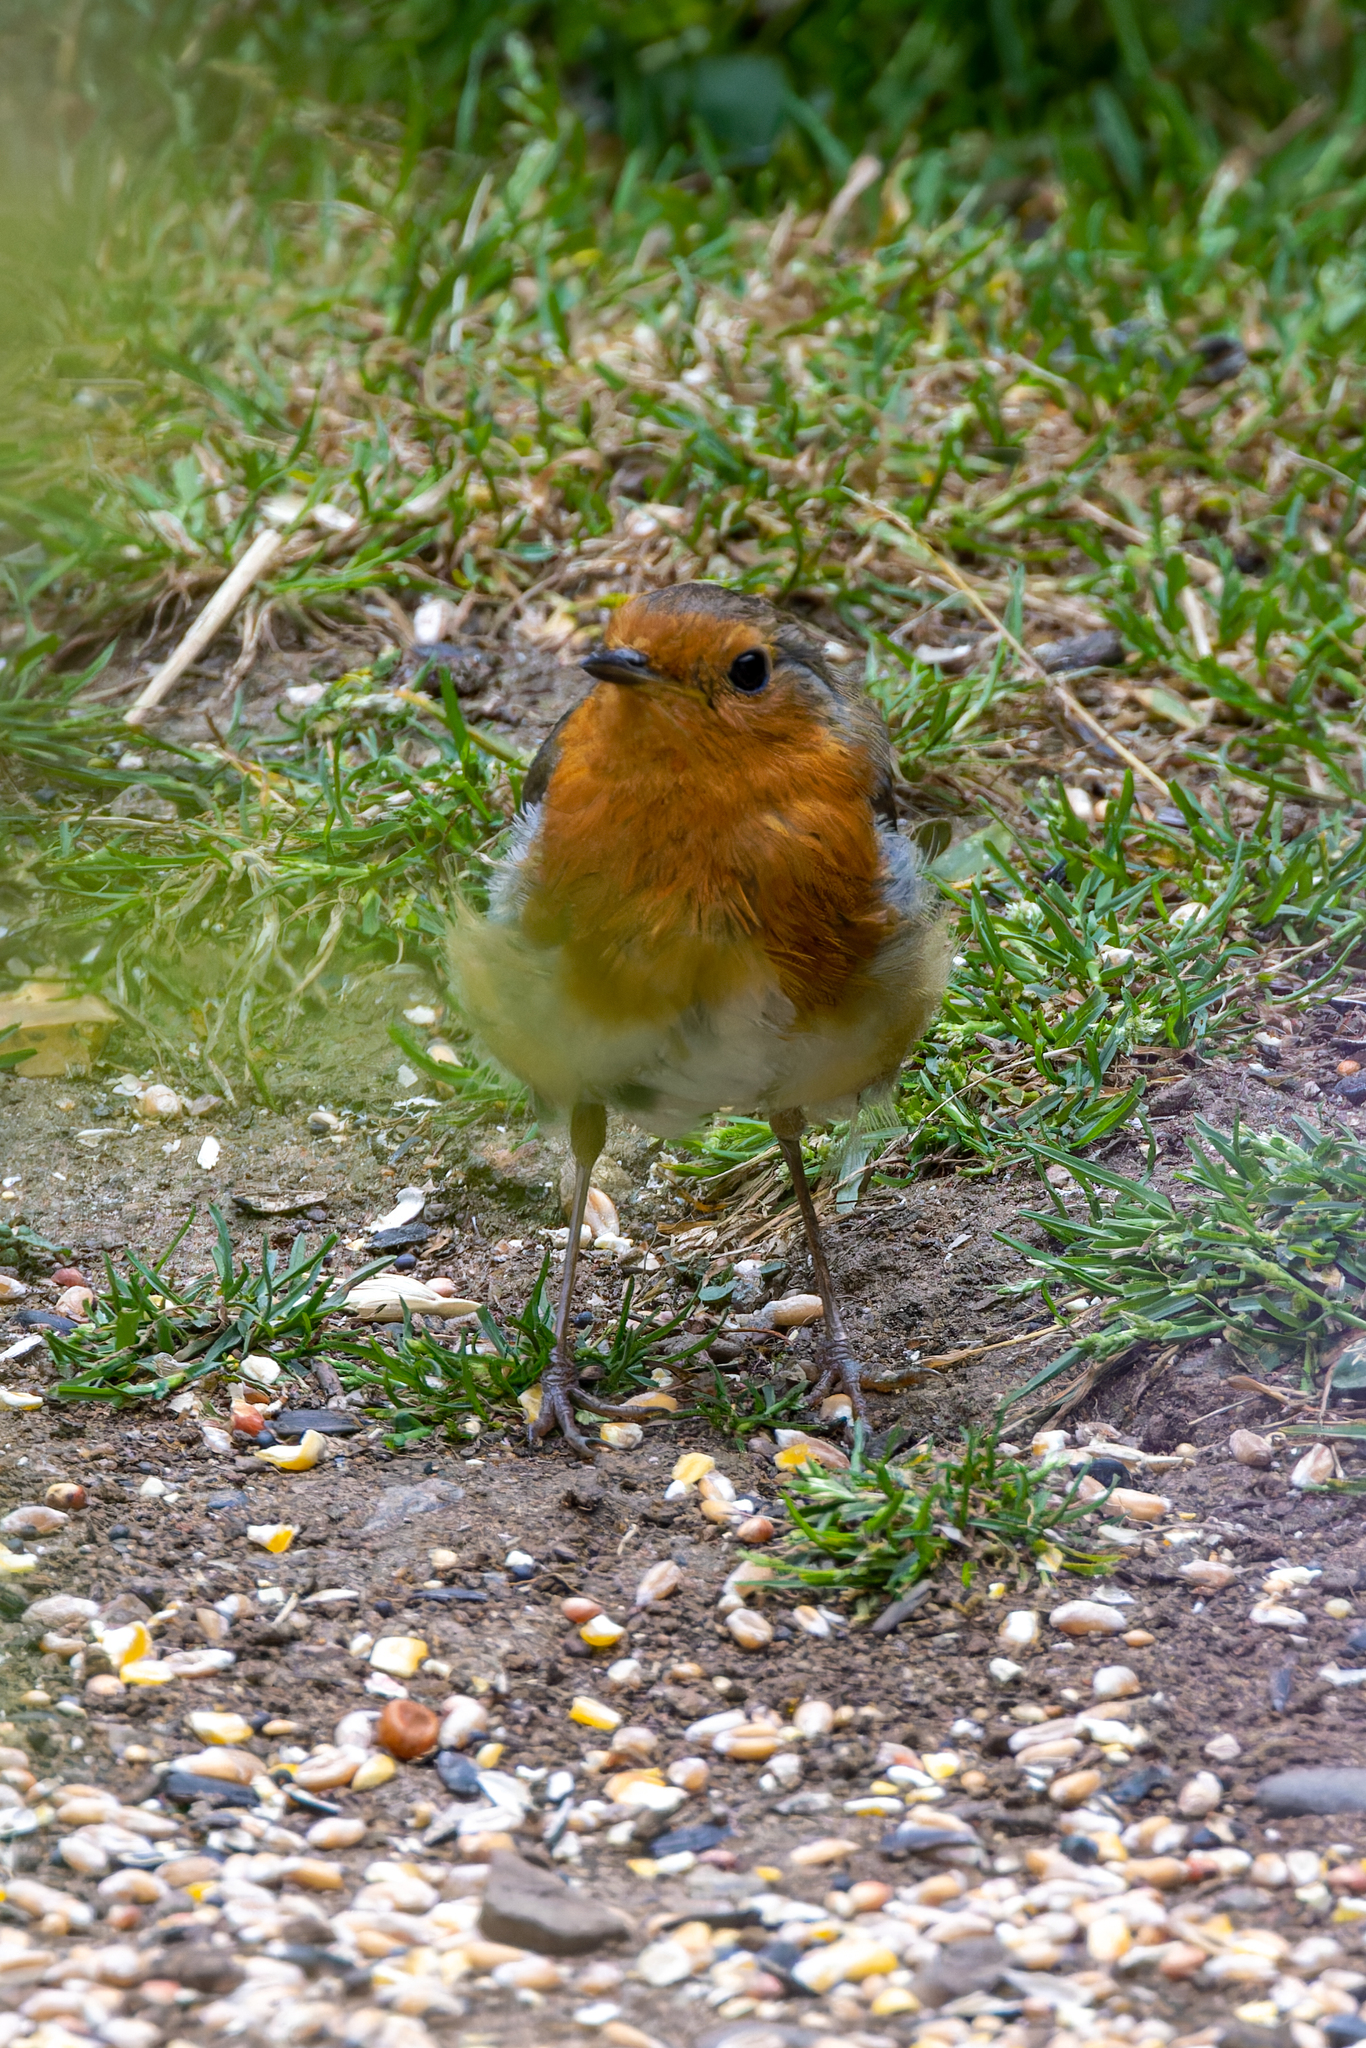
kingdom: Animalia
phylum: Chordata
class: Aves
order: Passeriformes
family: Muscicapidae
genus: Erithacus
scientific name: Erithacus rubecula
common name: European robin
